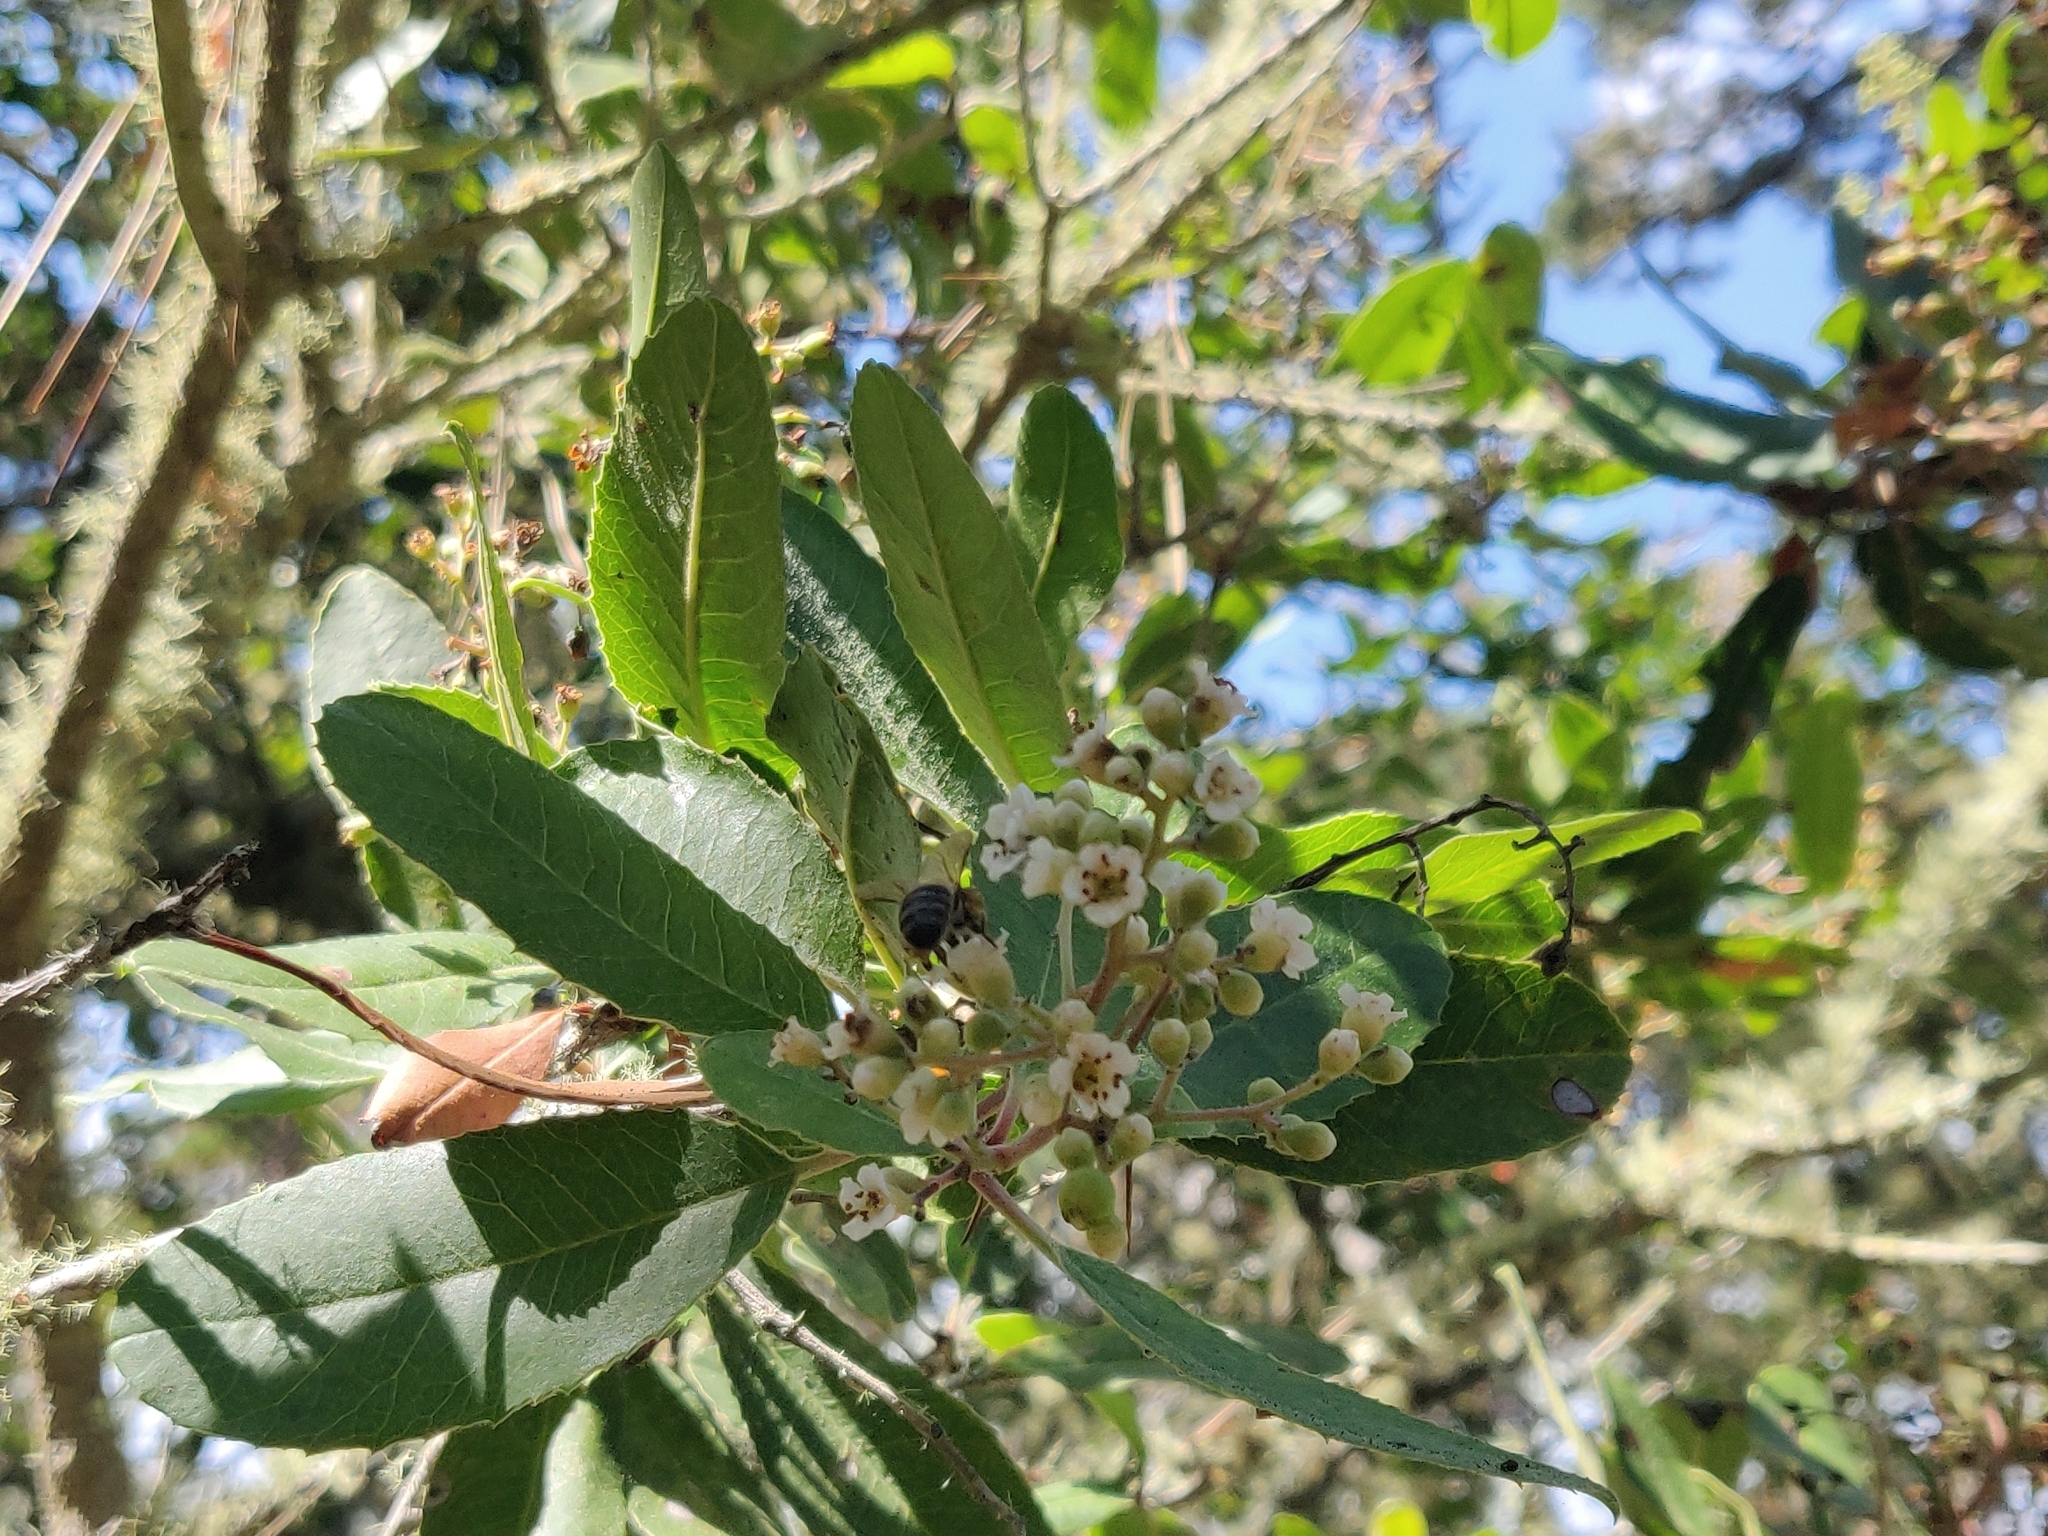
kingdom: Plantae
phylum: Tracheophyta
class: Magnoliopsida
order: Rosales
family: Rosaceae
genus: Heteromeles
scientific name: Heteromeles arbutifolia
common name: California-holly
